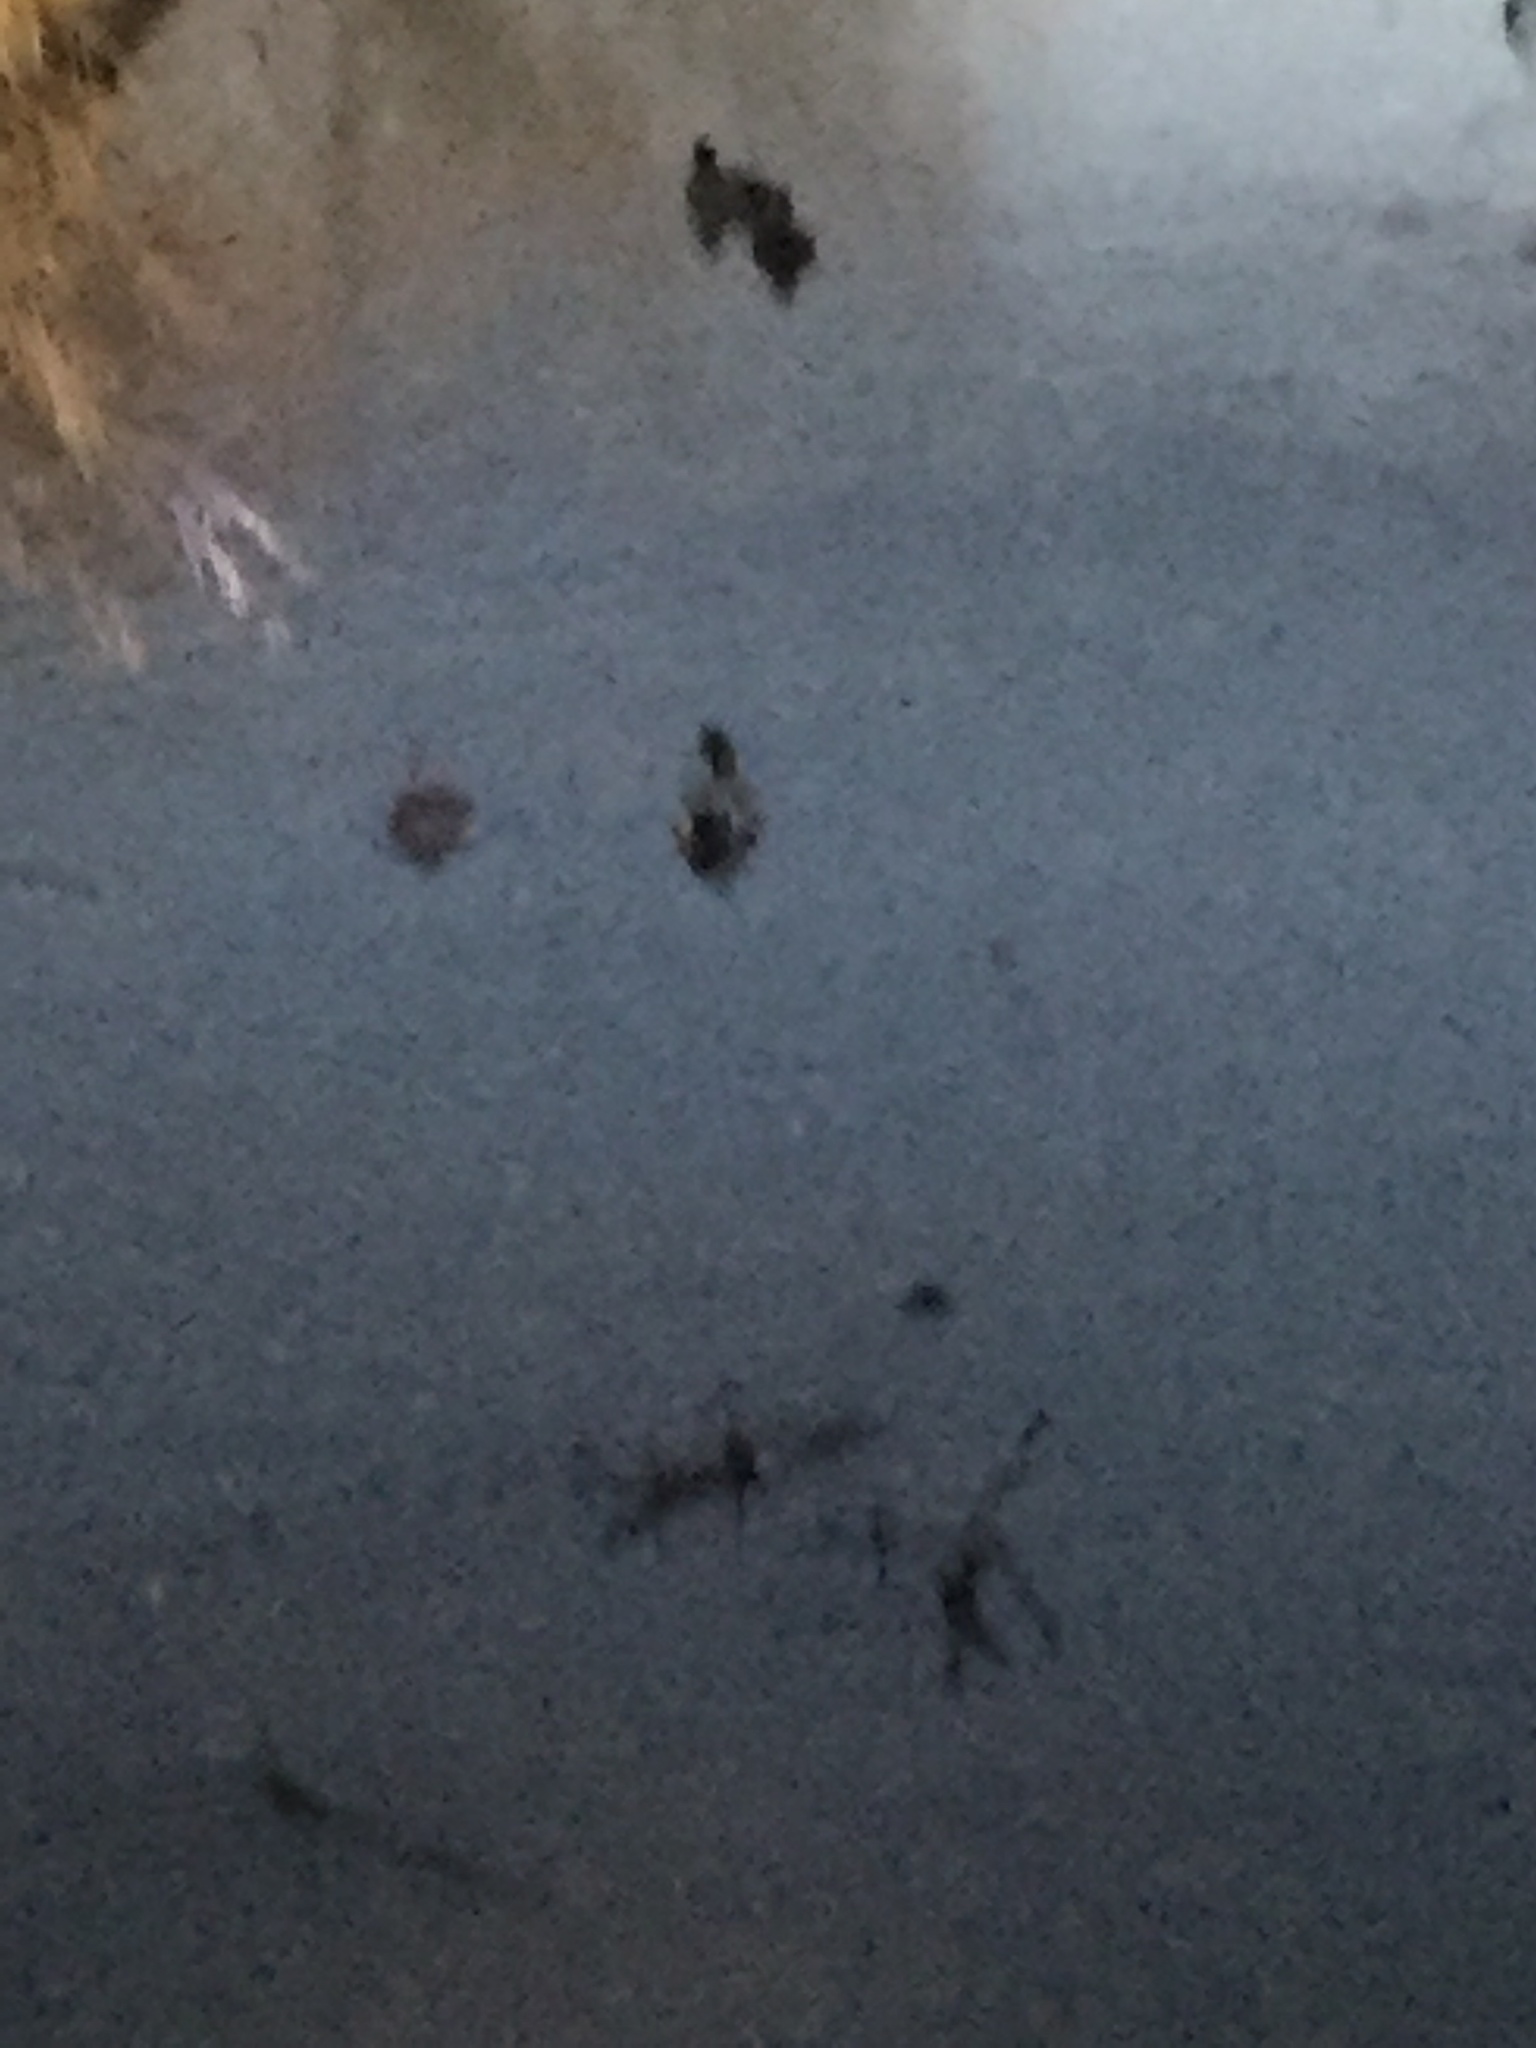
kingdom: Animalia
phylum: Chordata
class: Aves
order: Anseriformes
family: Anatidae
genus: Anas
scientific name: Anas platyrhynchos
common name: Mallard
